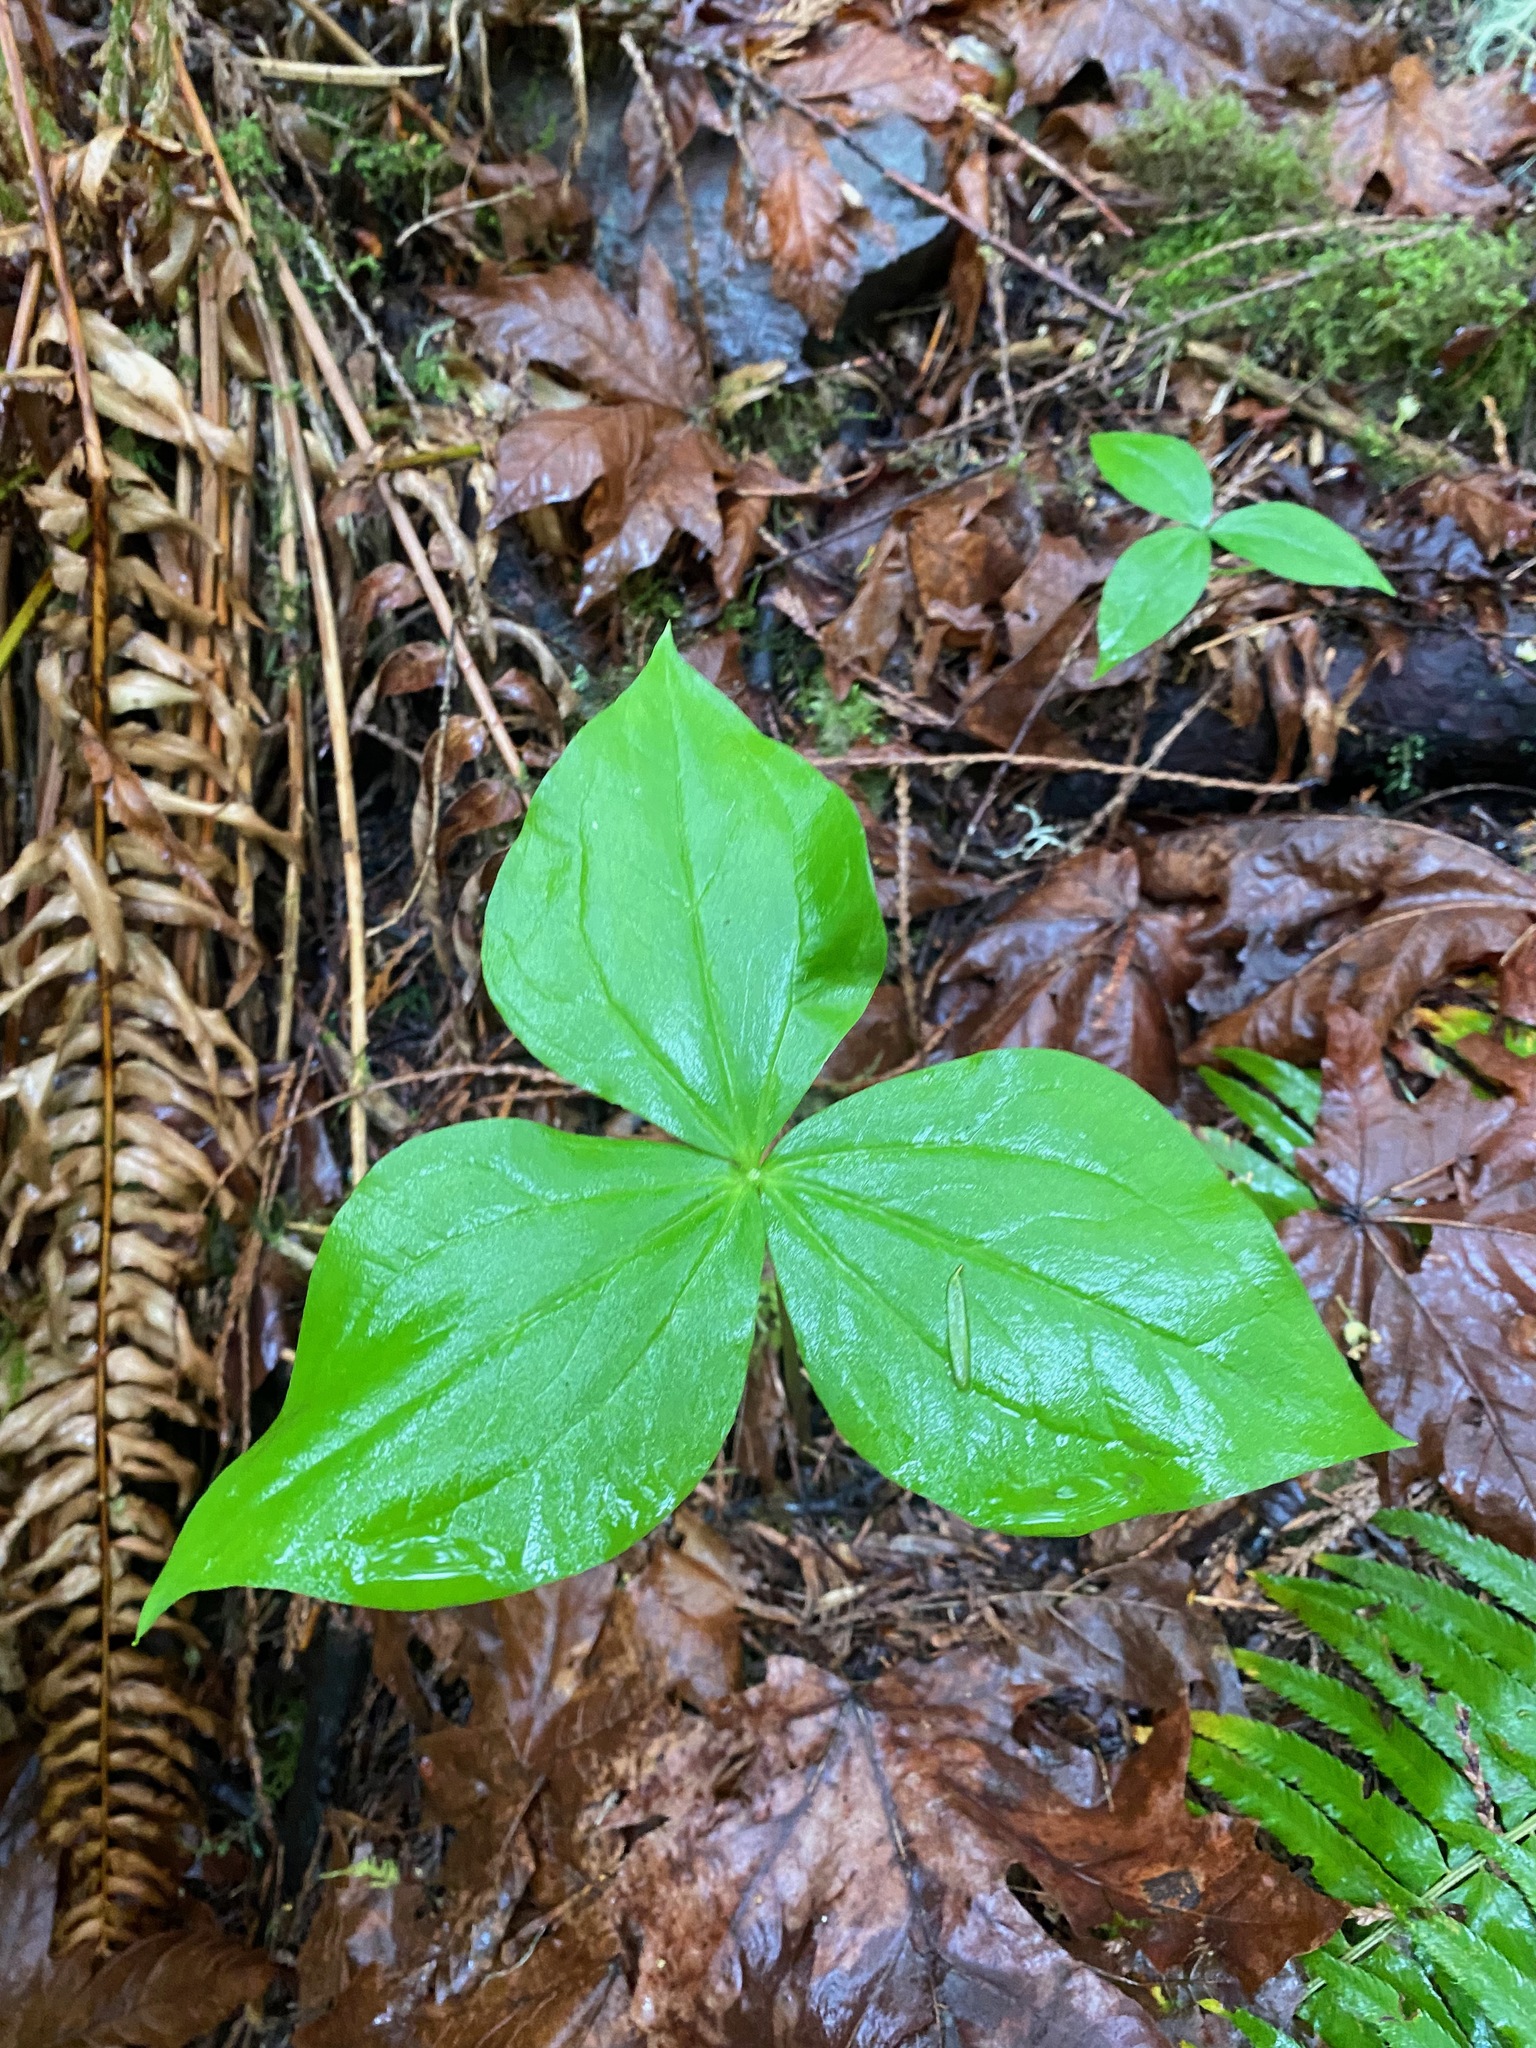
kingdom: Plantae
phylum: Tracheophyta
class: Liliopsida
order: Liliales
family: Melanthiaceae
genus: Trillium
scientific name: Trillium ovatum
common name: Pacific trillium
